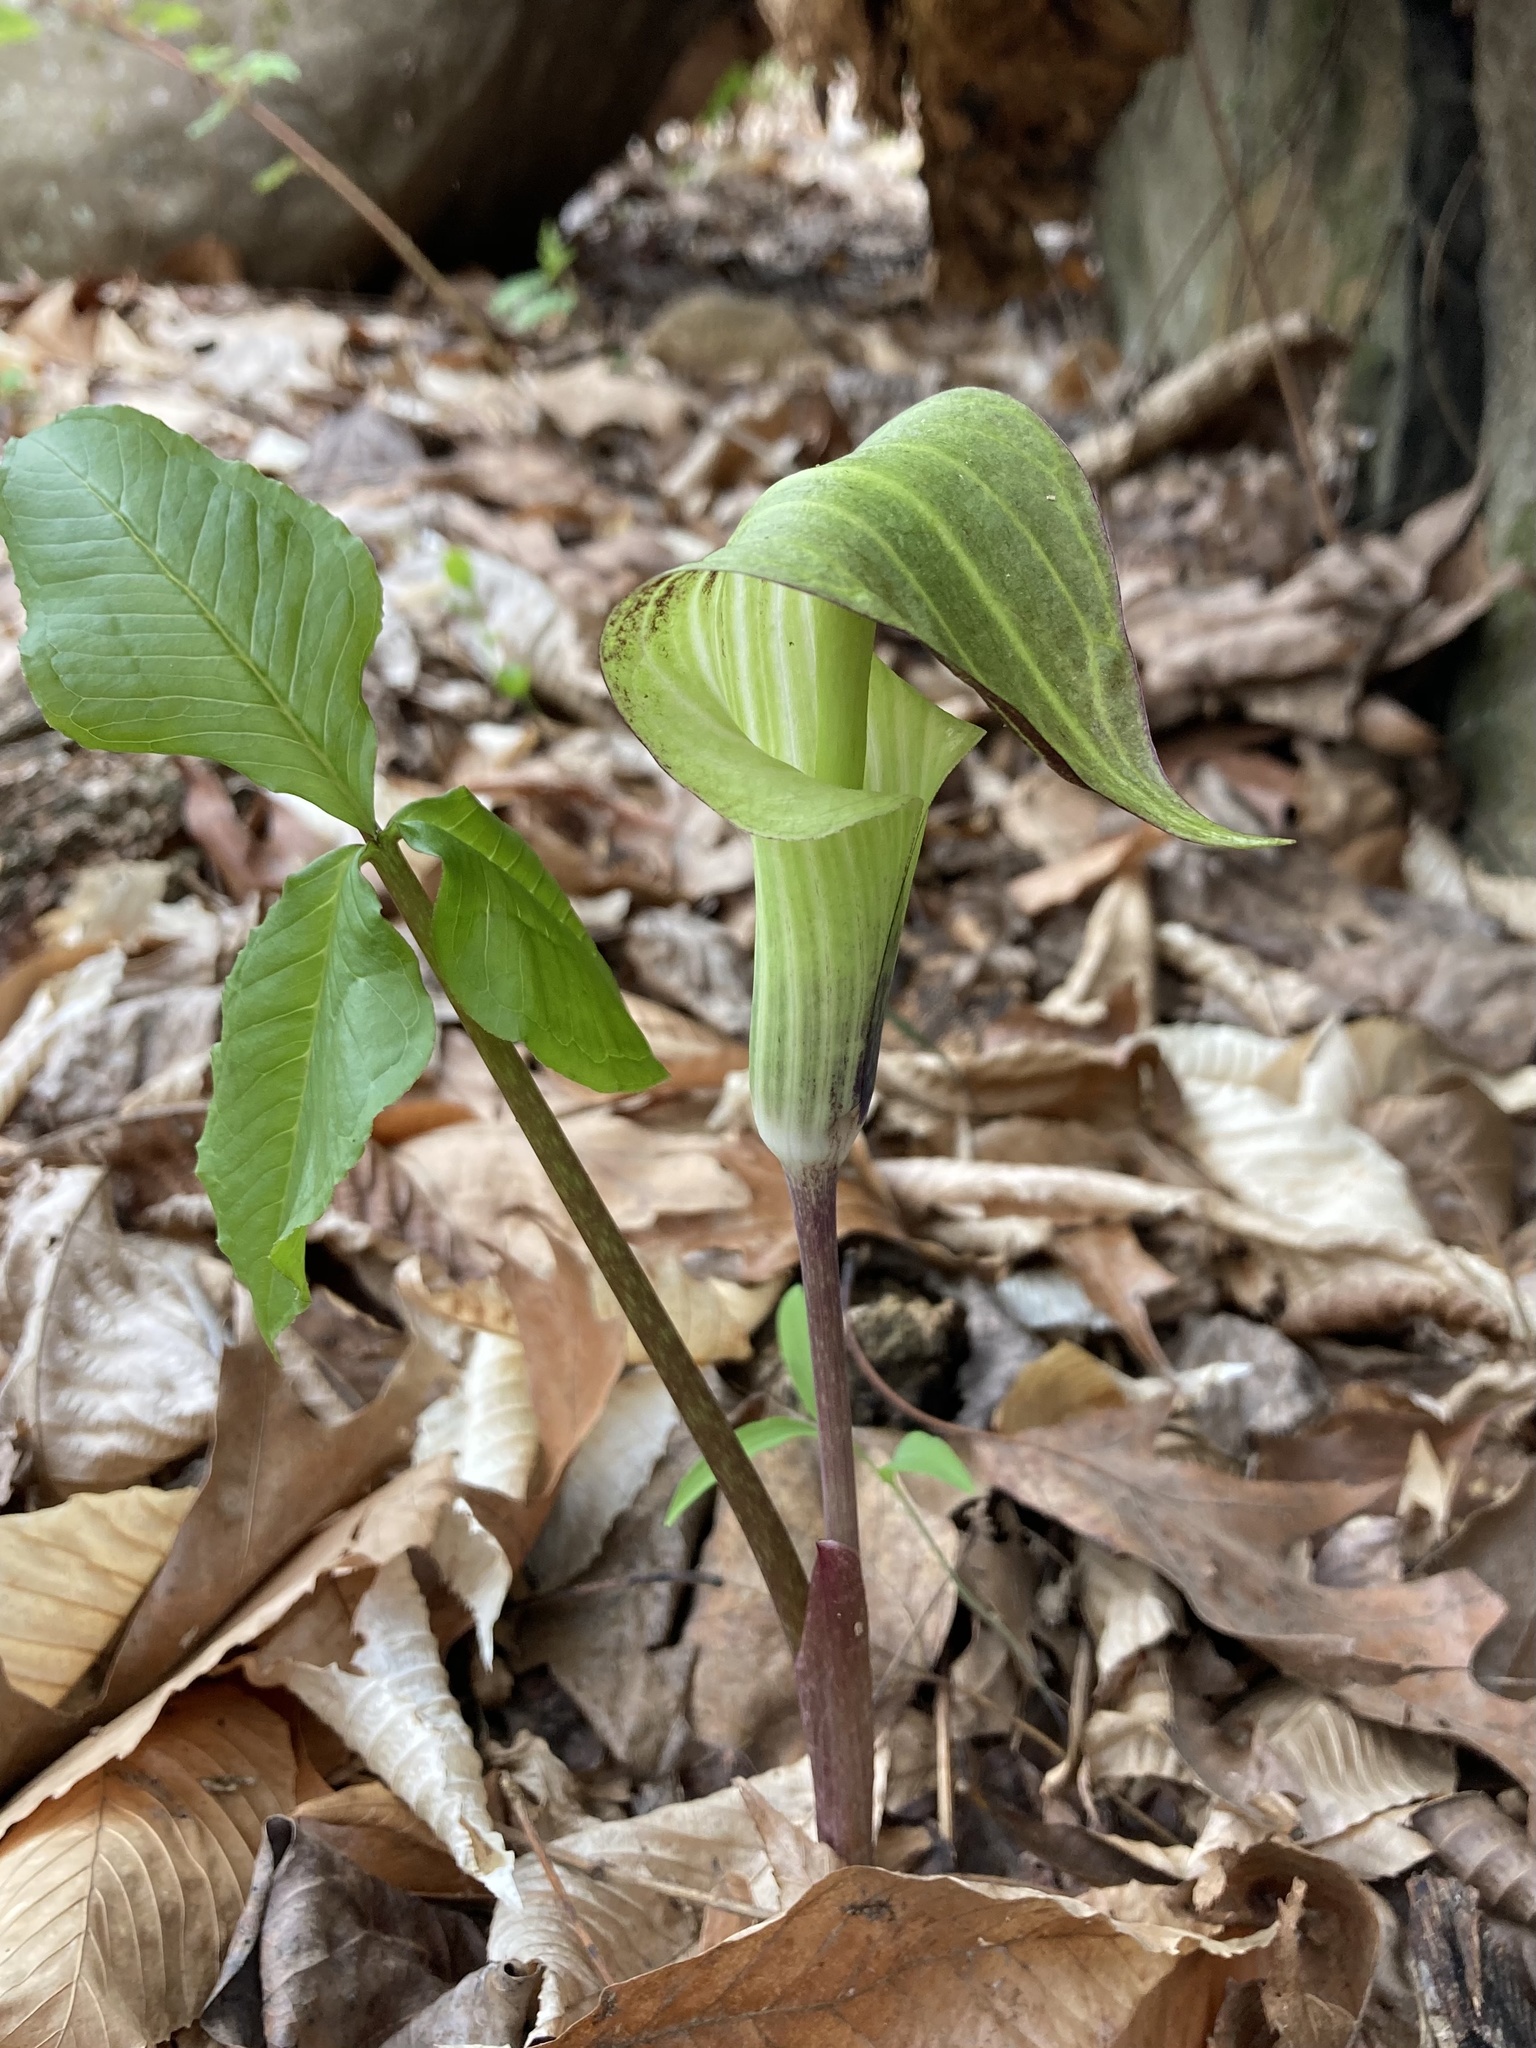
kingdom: Plantae
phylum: Tracheophyta
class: Liliopsida
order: Alismatales
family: Araceae
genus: Arisaema
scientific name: Arisaema triphyllum
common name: Jack-in-the-pulpit
